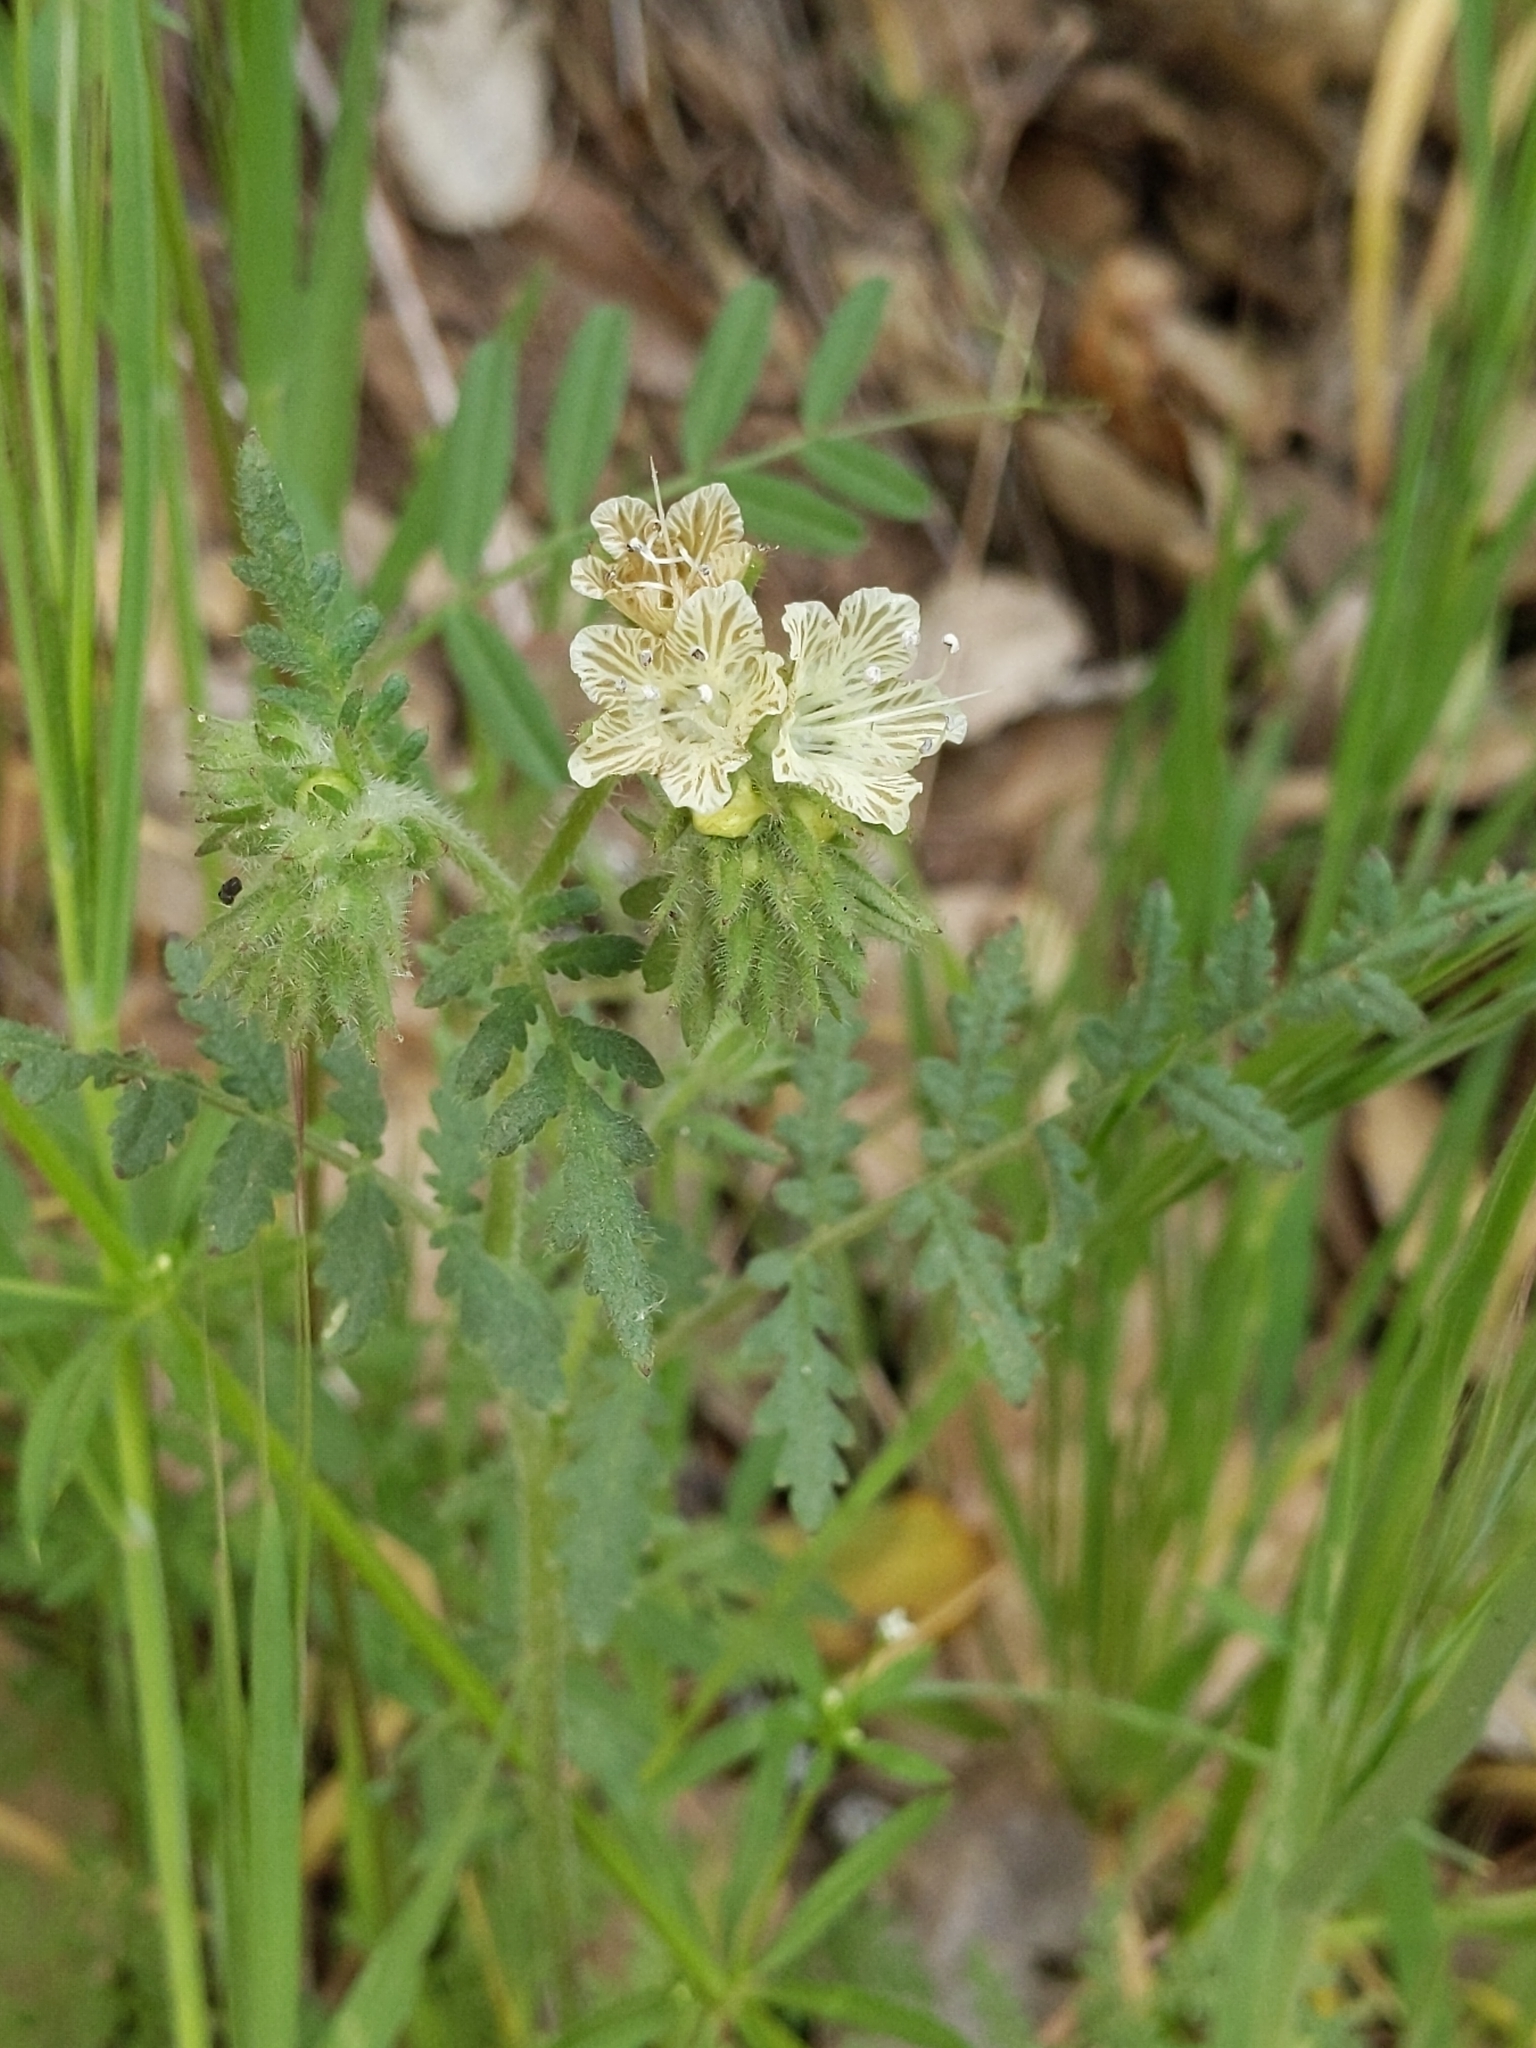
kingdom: Plantae
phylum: Tracheophyta
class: Magnoliopsida
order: Boraginales
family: Hydrophyllaceae
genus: Phacelia
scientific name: Phacelia distans
